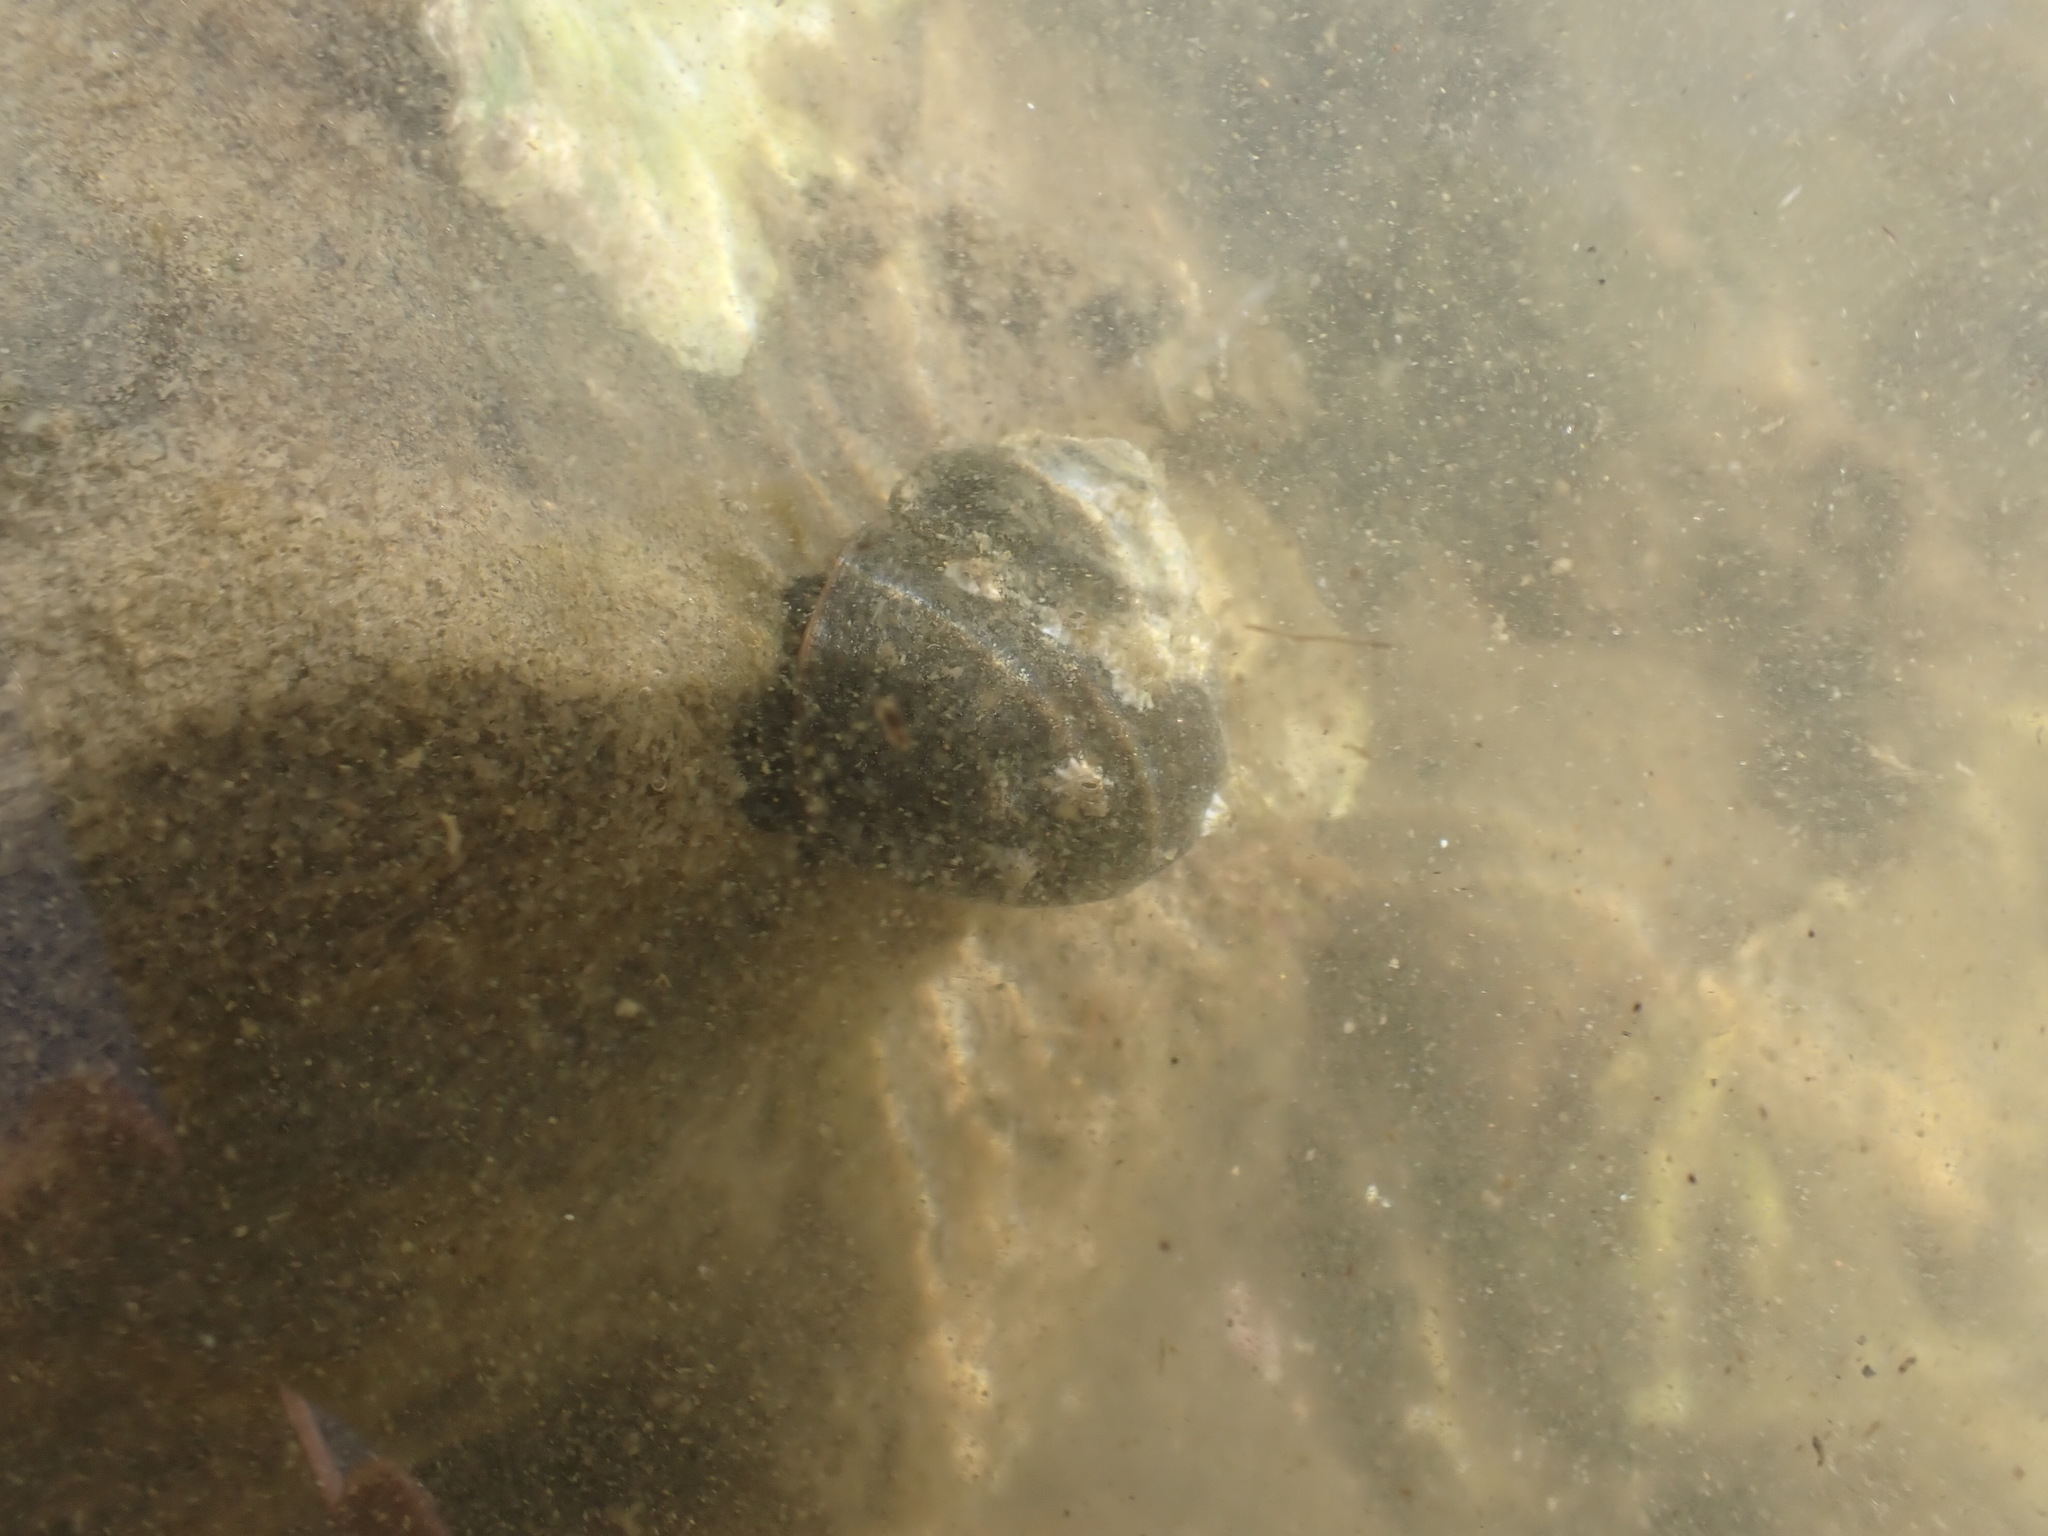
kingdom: Animalia
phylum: Mollusca
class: Gastropoda
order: Trochida
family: Turbinidae
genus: Lunella
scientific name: Lunella smaragda
